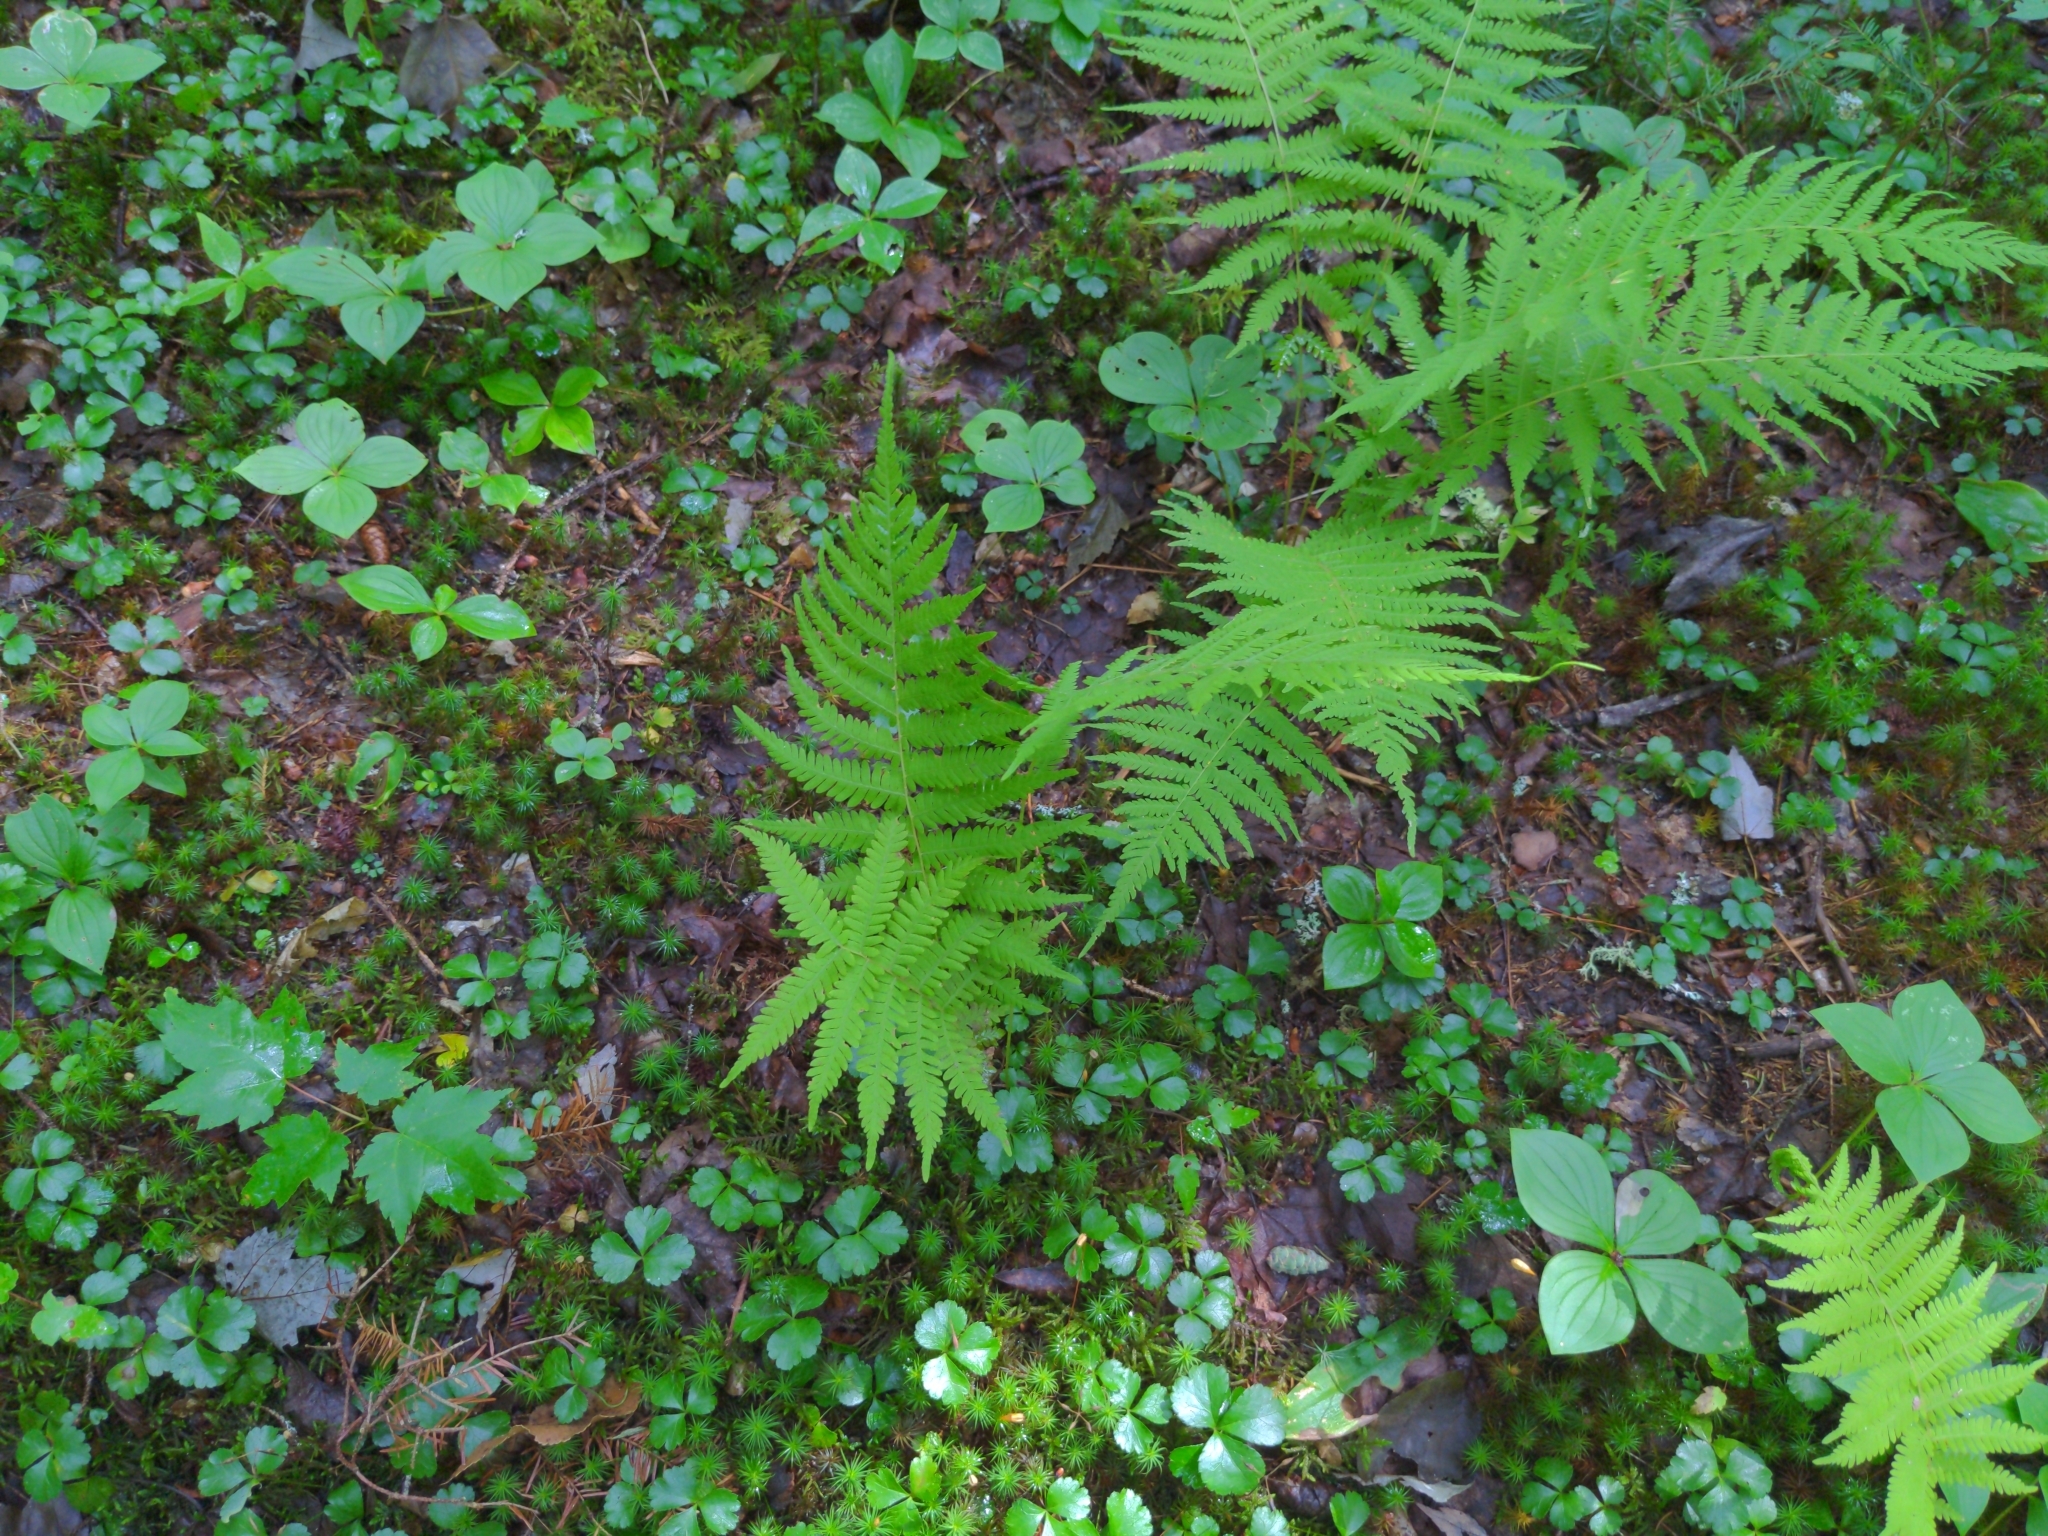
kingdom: Plantae
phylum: Tracheophyta
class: Polypodiopsida
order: Polypodiales
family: Thelypteridaceae
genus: Amauropelta
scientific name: Amauropelta noveboracensis
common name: New york fern
